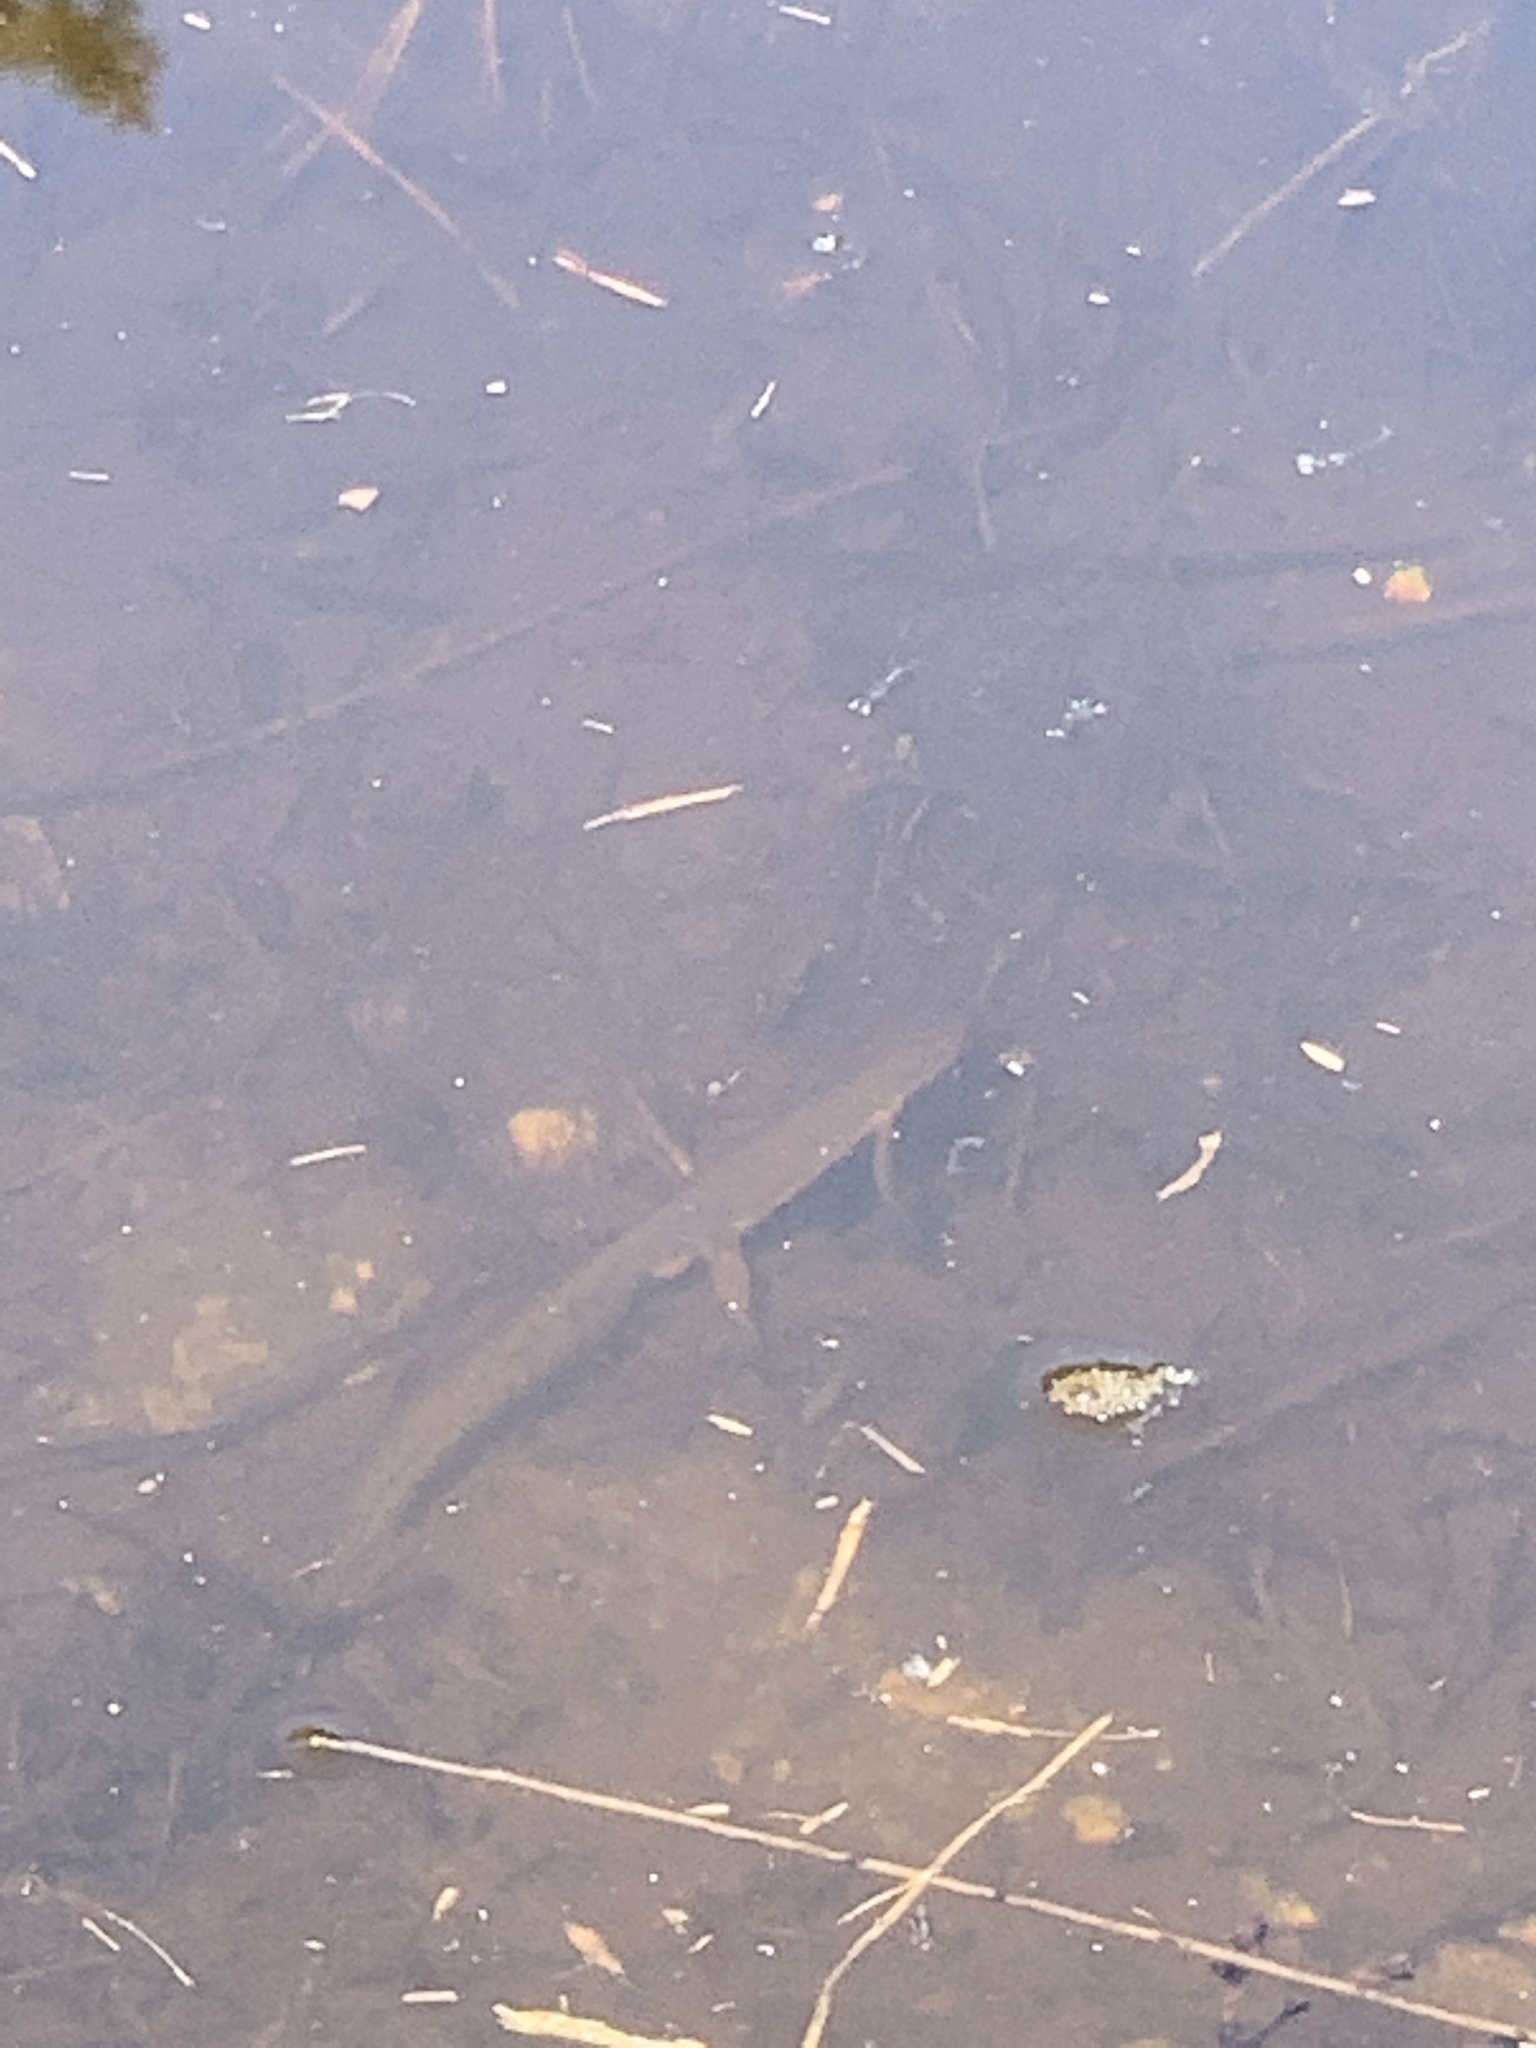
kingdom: Animalia
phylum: Chordata
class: Amphibia
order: Caudata
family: Salamandridae
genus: Notophthalmus
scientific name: Notophthalmus viridescens
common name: Eastern newt
